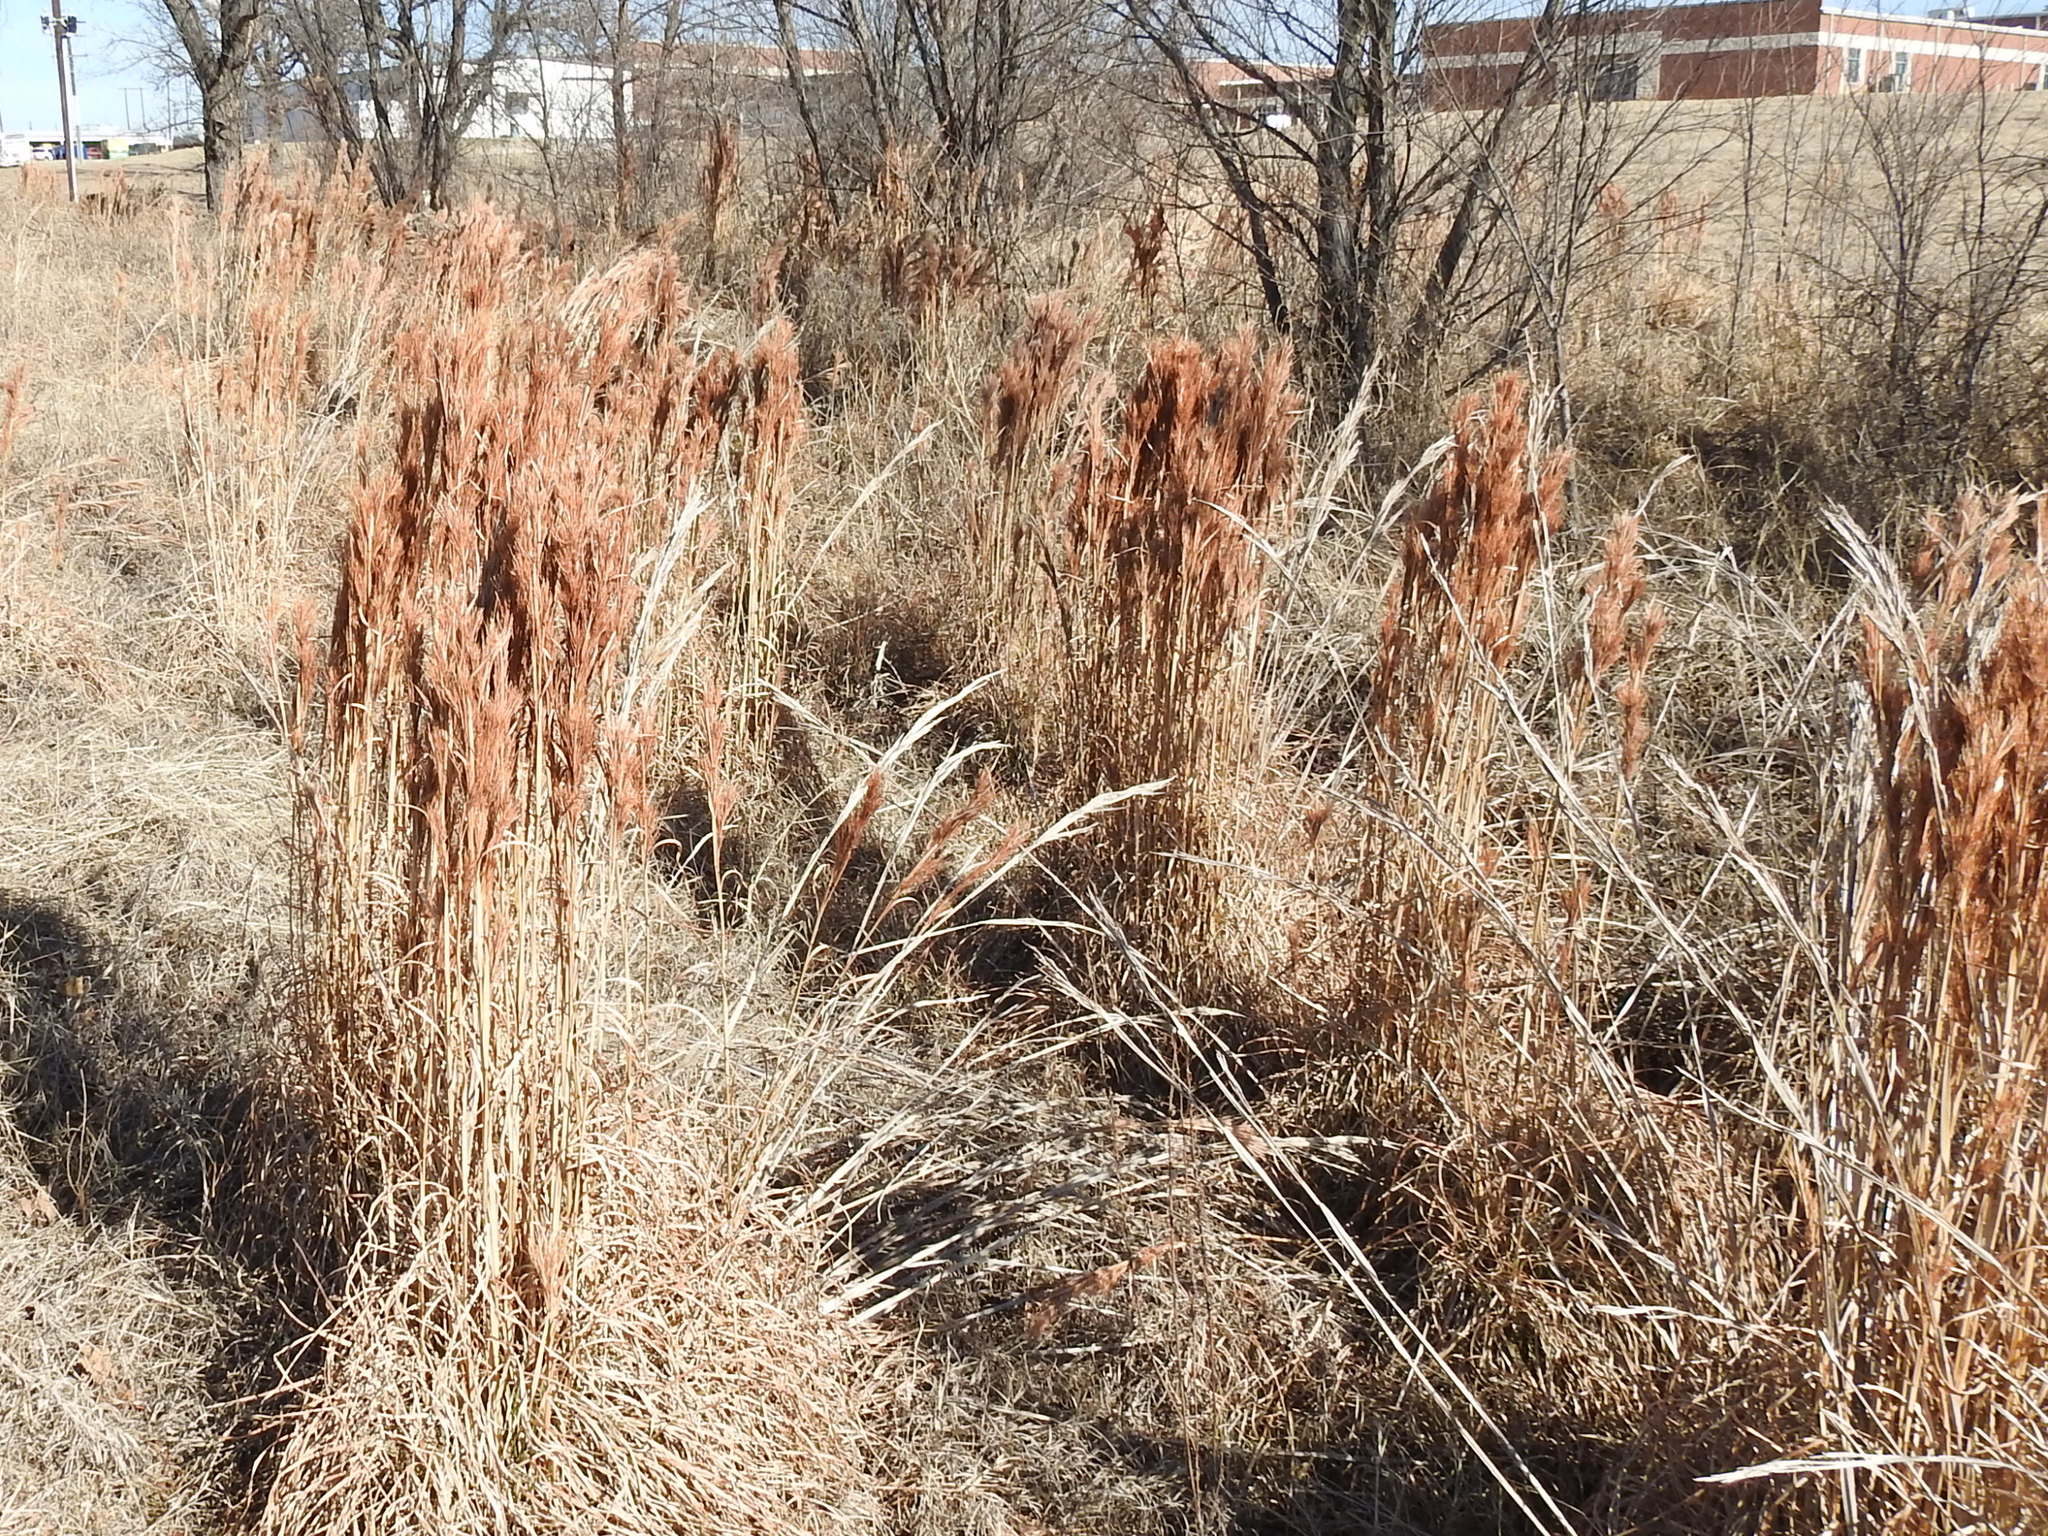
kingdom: Plantae
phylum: Tracheophyta
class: Liliopsida
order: Poales
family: Poaceae
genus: Andropogon
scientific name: Andropogon tenuispatheus
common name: Bushy bluestem
